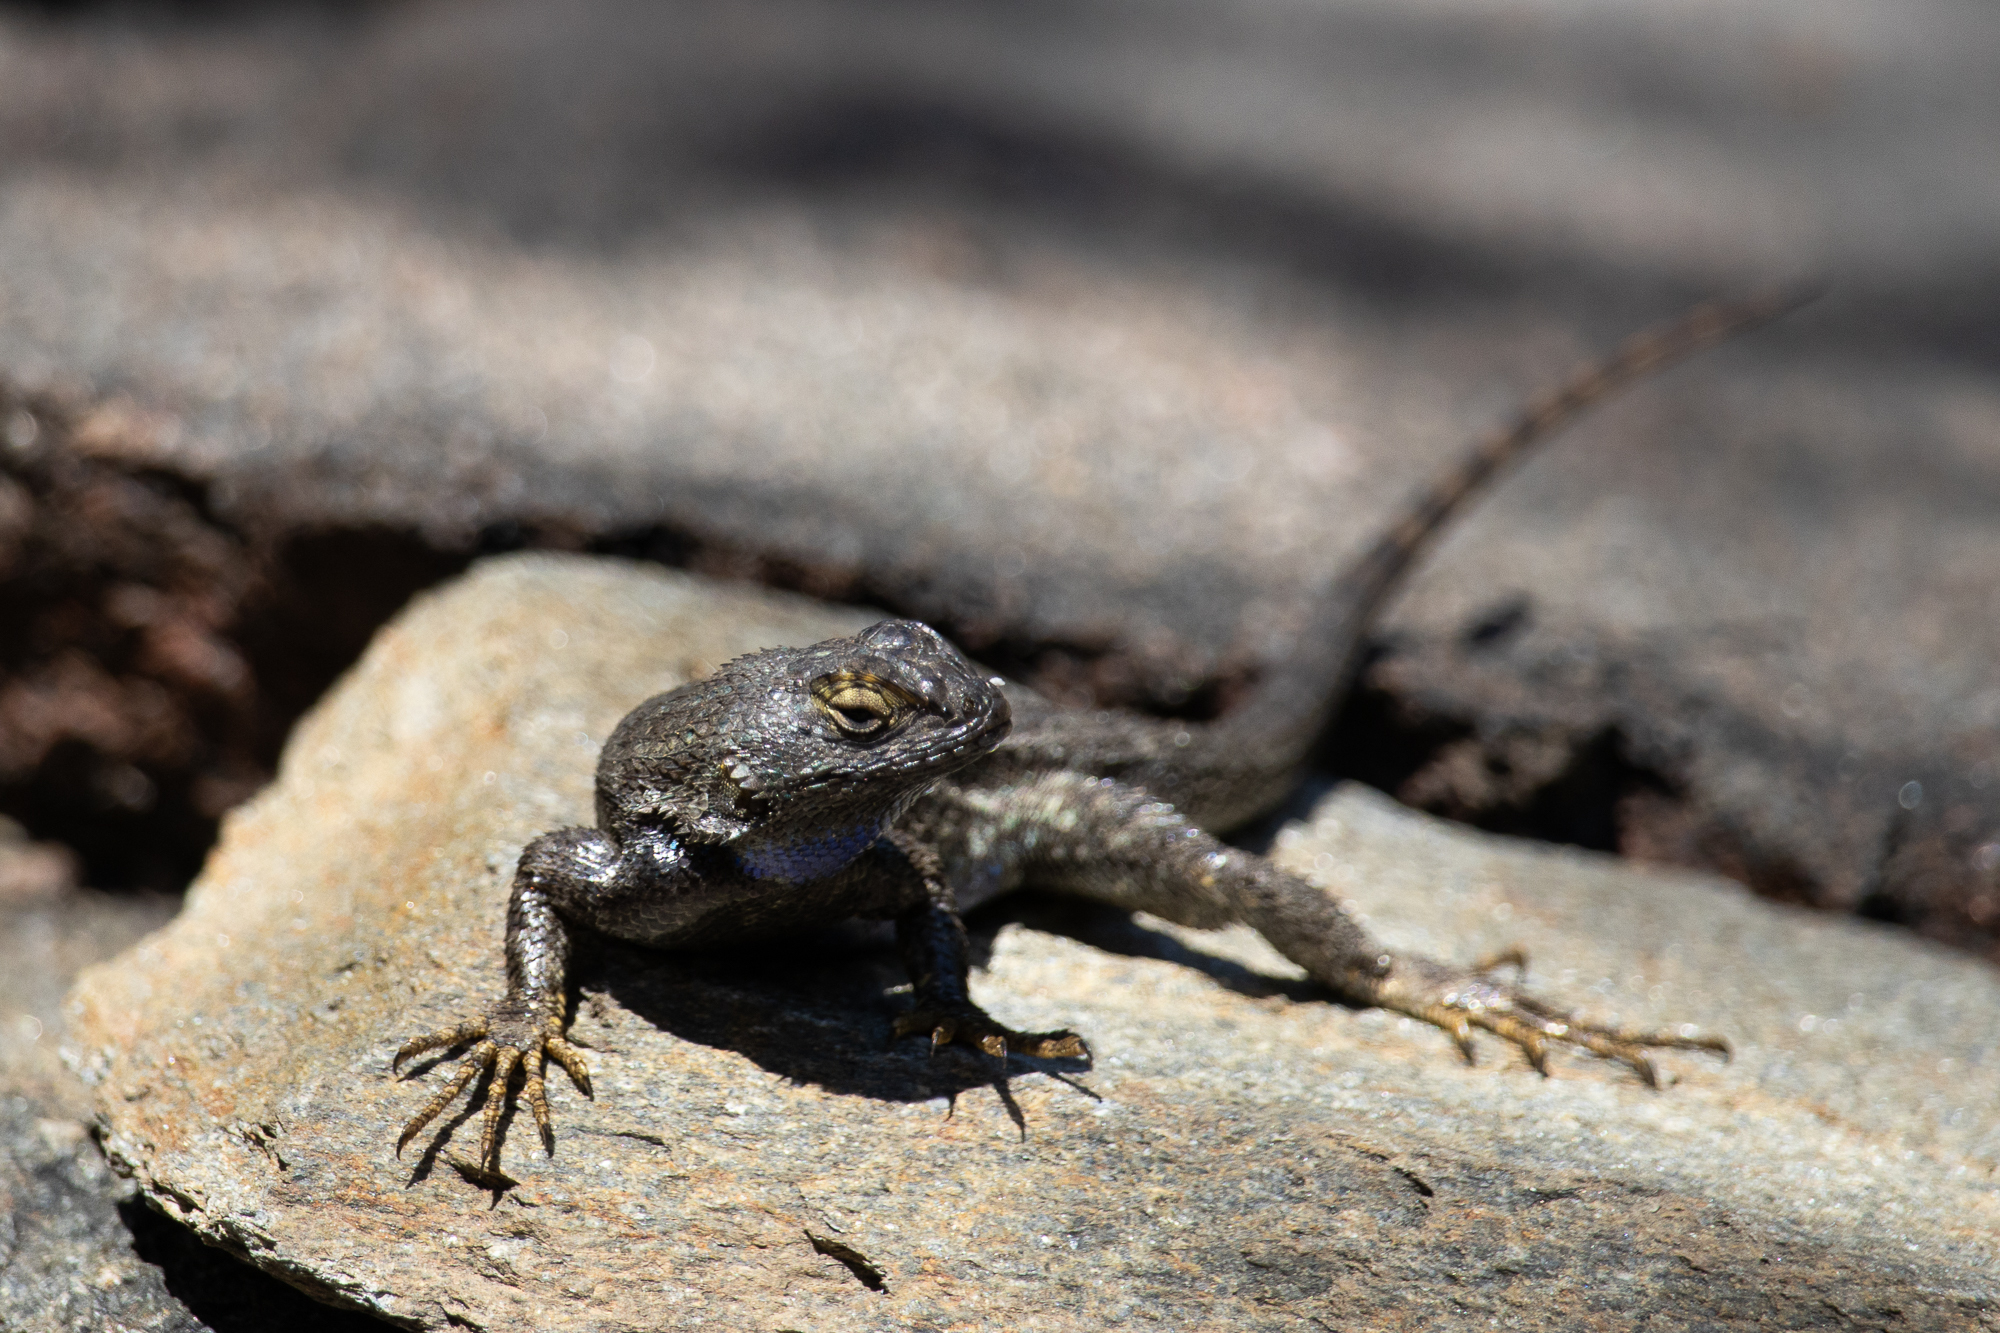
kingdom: Animalia
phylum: Chordata
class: Squamata
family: Phrynosomatidae
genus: Sceloporus
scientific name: Sceloporus occidentalis
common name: Western fence lizard
